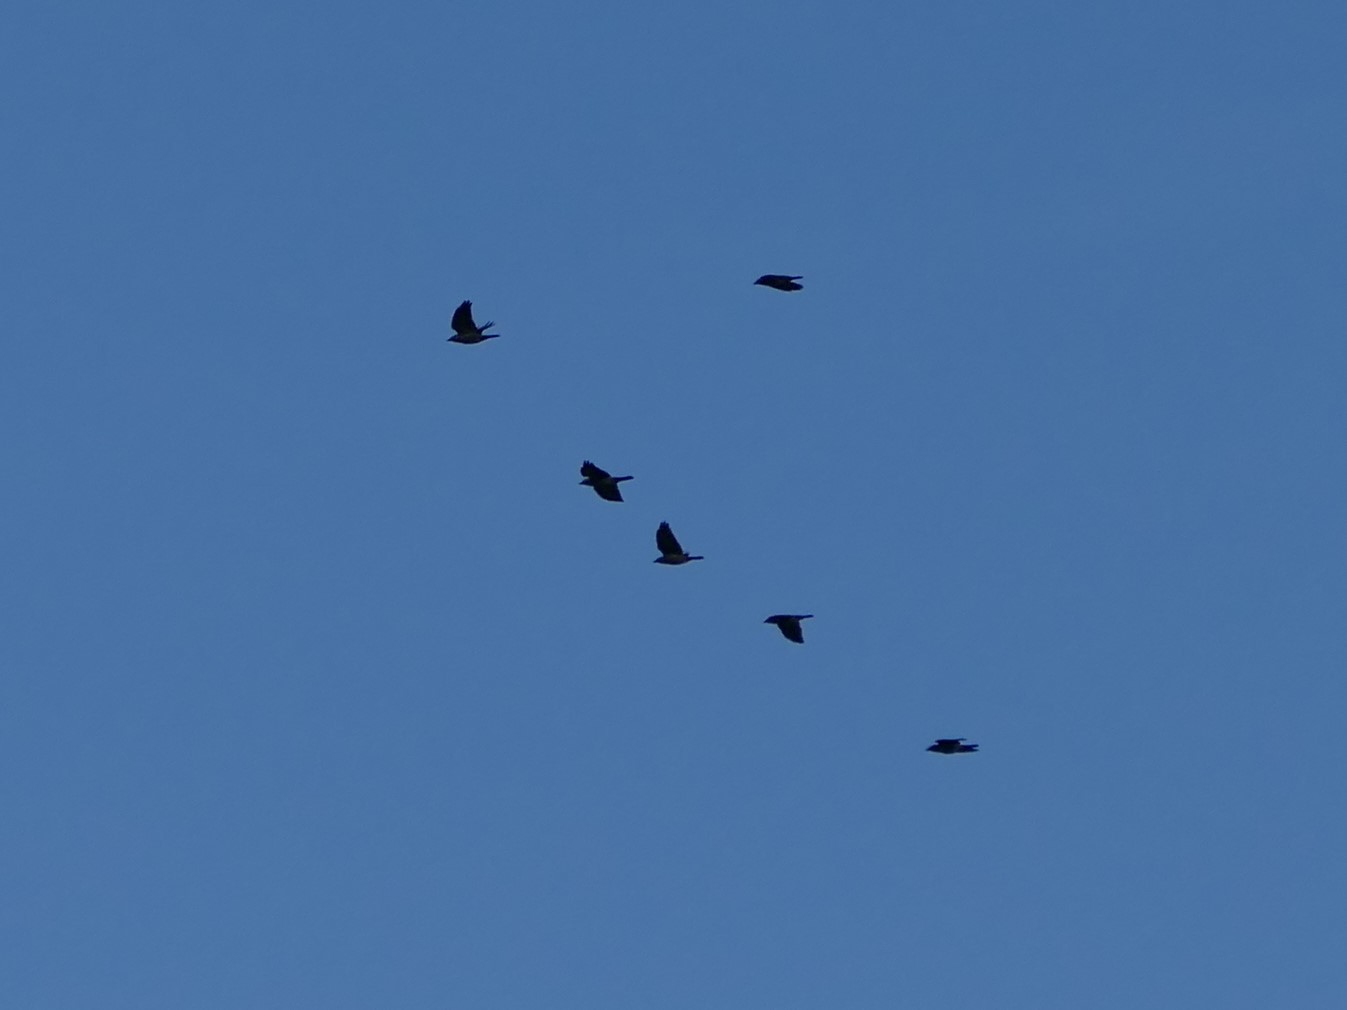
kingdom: Animalia
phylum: Chordata
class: Aves
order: Passeriformes
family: Corvidae
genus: Coloeus
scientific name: Coloeus monedula
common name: Western jackdaw
